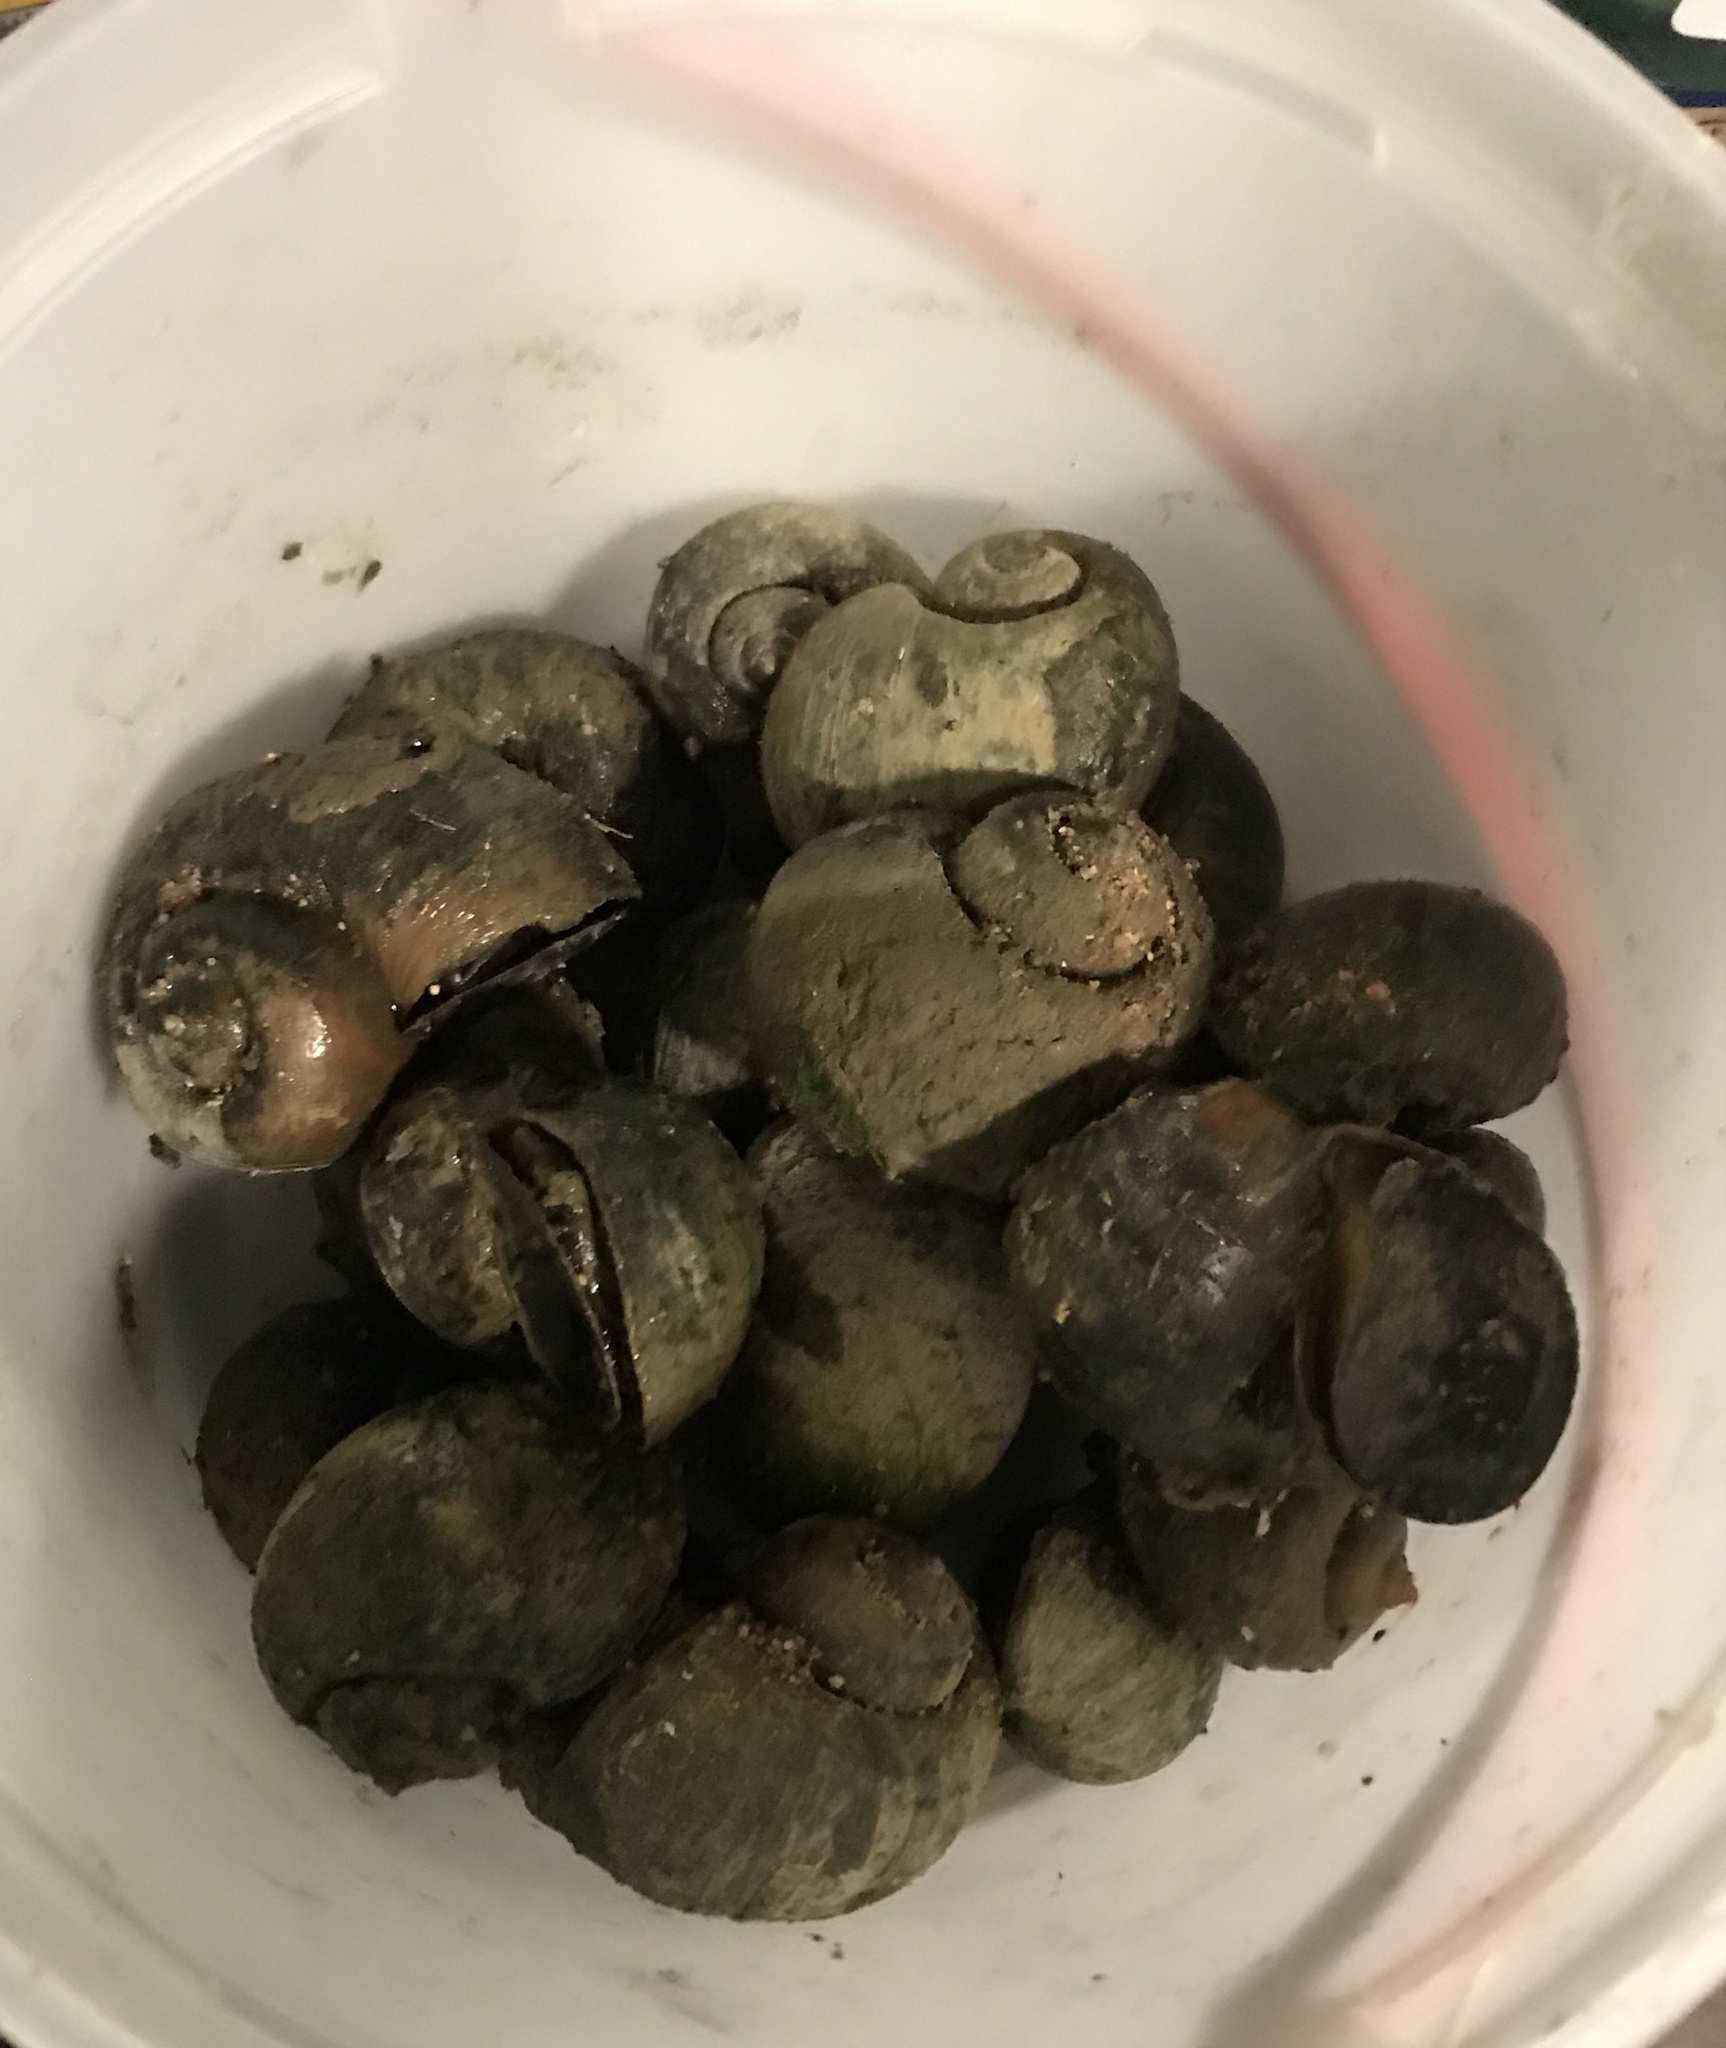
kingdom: Animalia
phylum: Mollusca
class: Gastropoda
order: Architaenioglossa
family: Ampullariidae
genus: Pomacea
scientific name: Pomacea canaliculata
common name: Channeled applesnail
